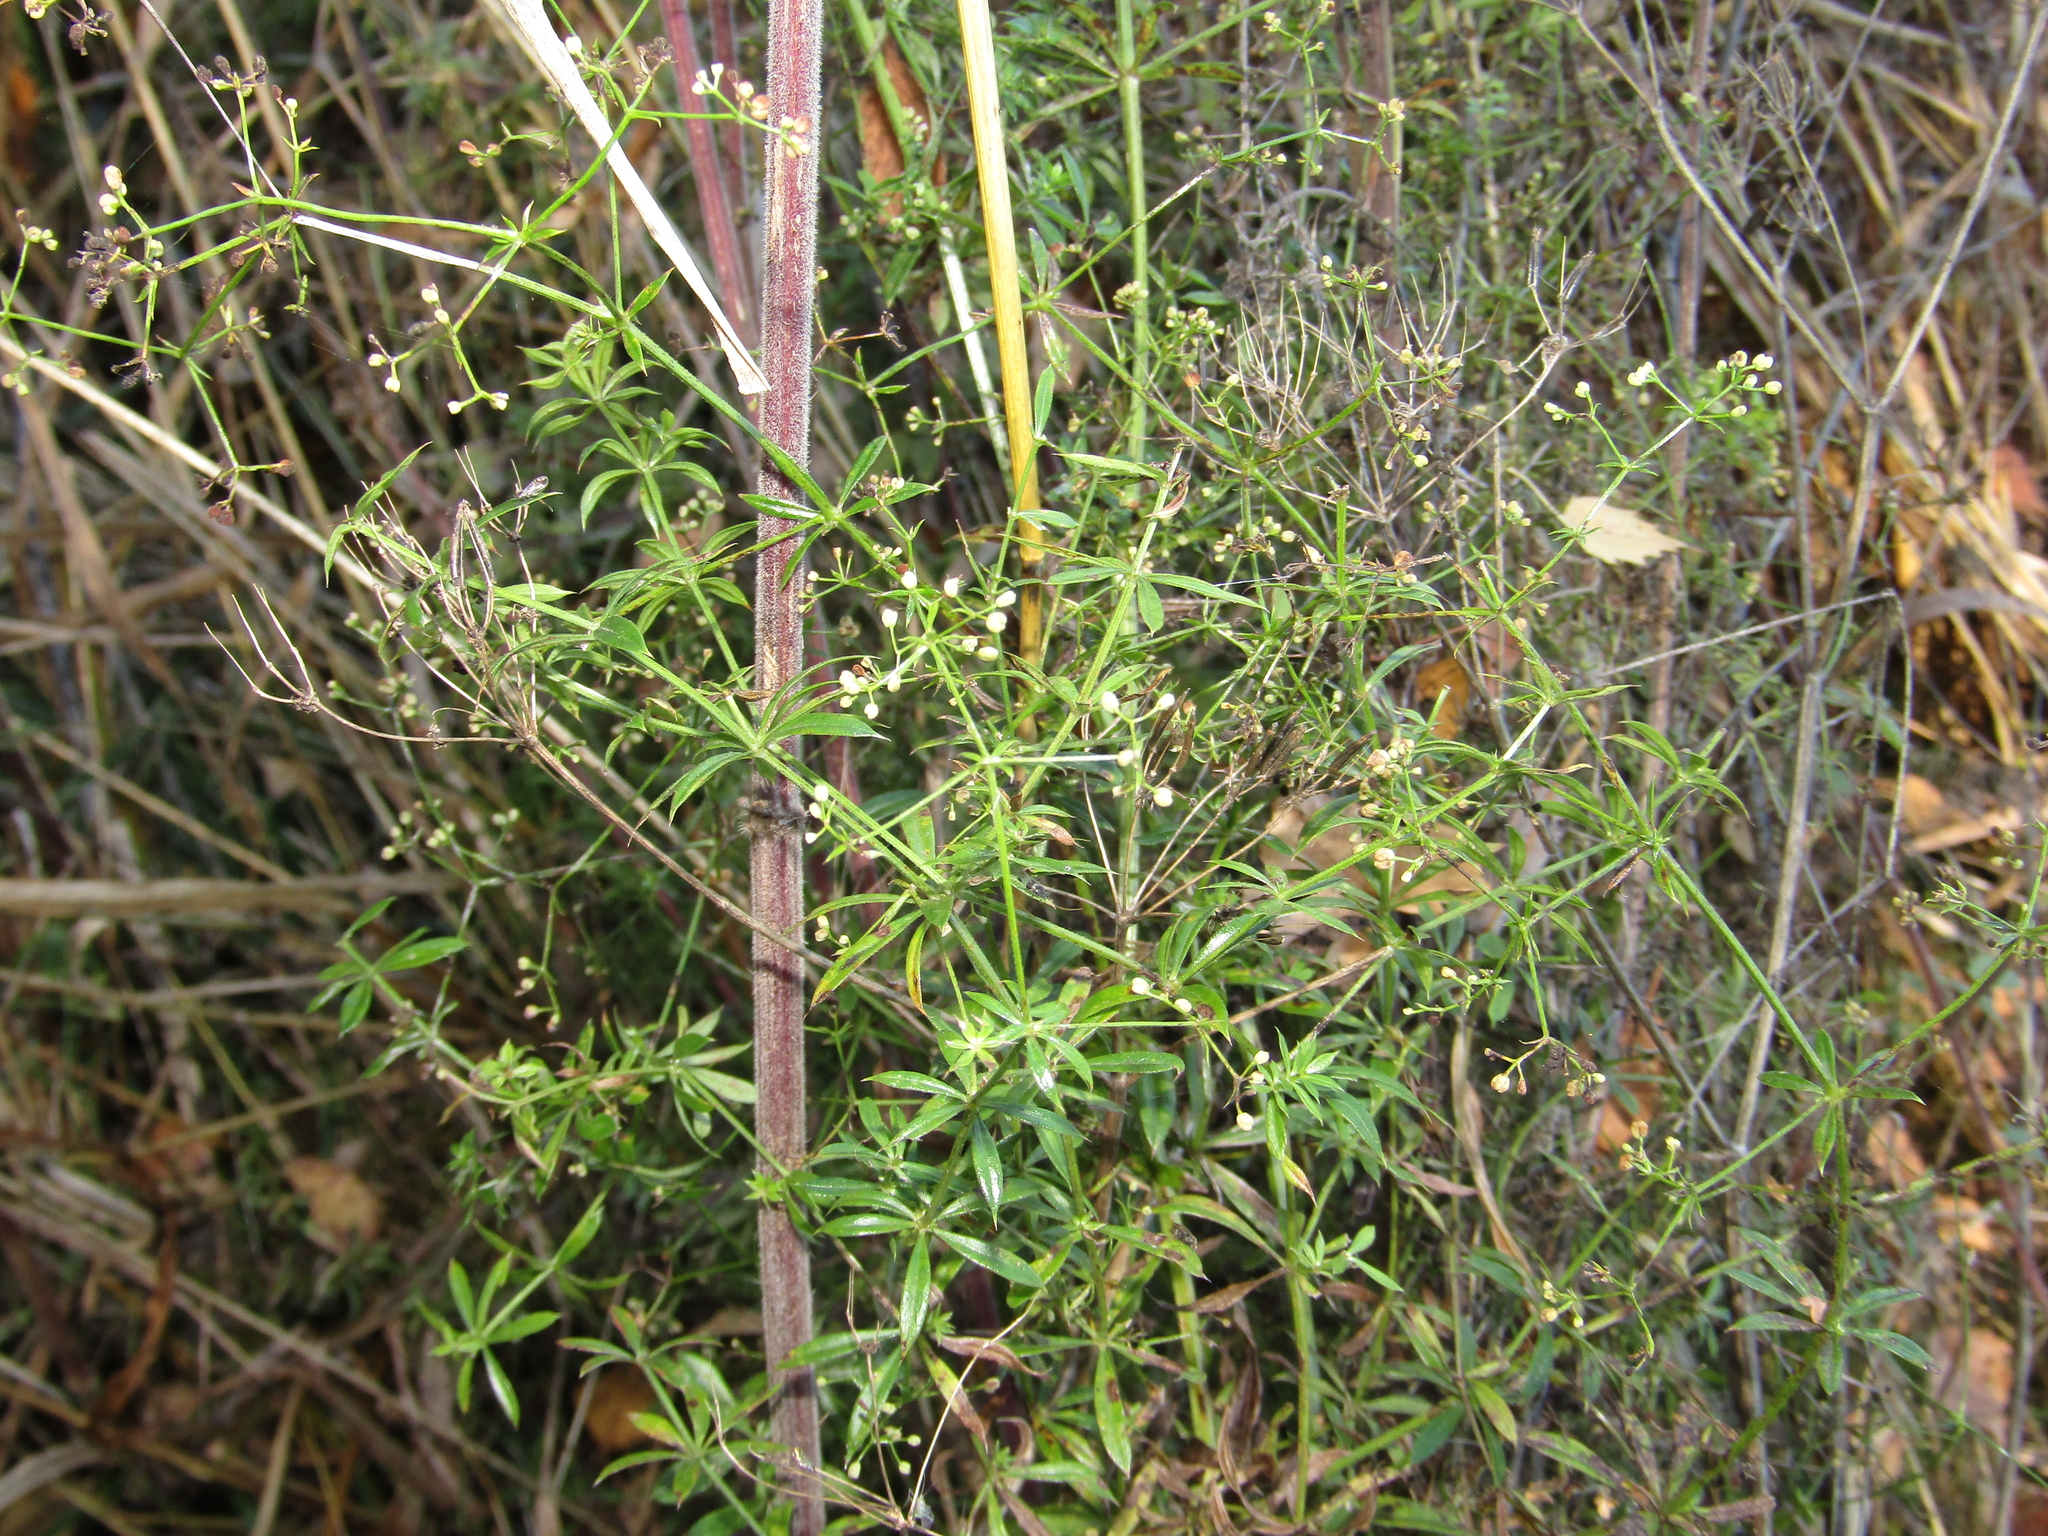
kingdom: Plantae
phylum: Tracheophyta
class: Magnoliopsida
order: Gentianales
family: Rubiaceae
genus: Galium
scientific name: Galium rivale
